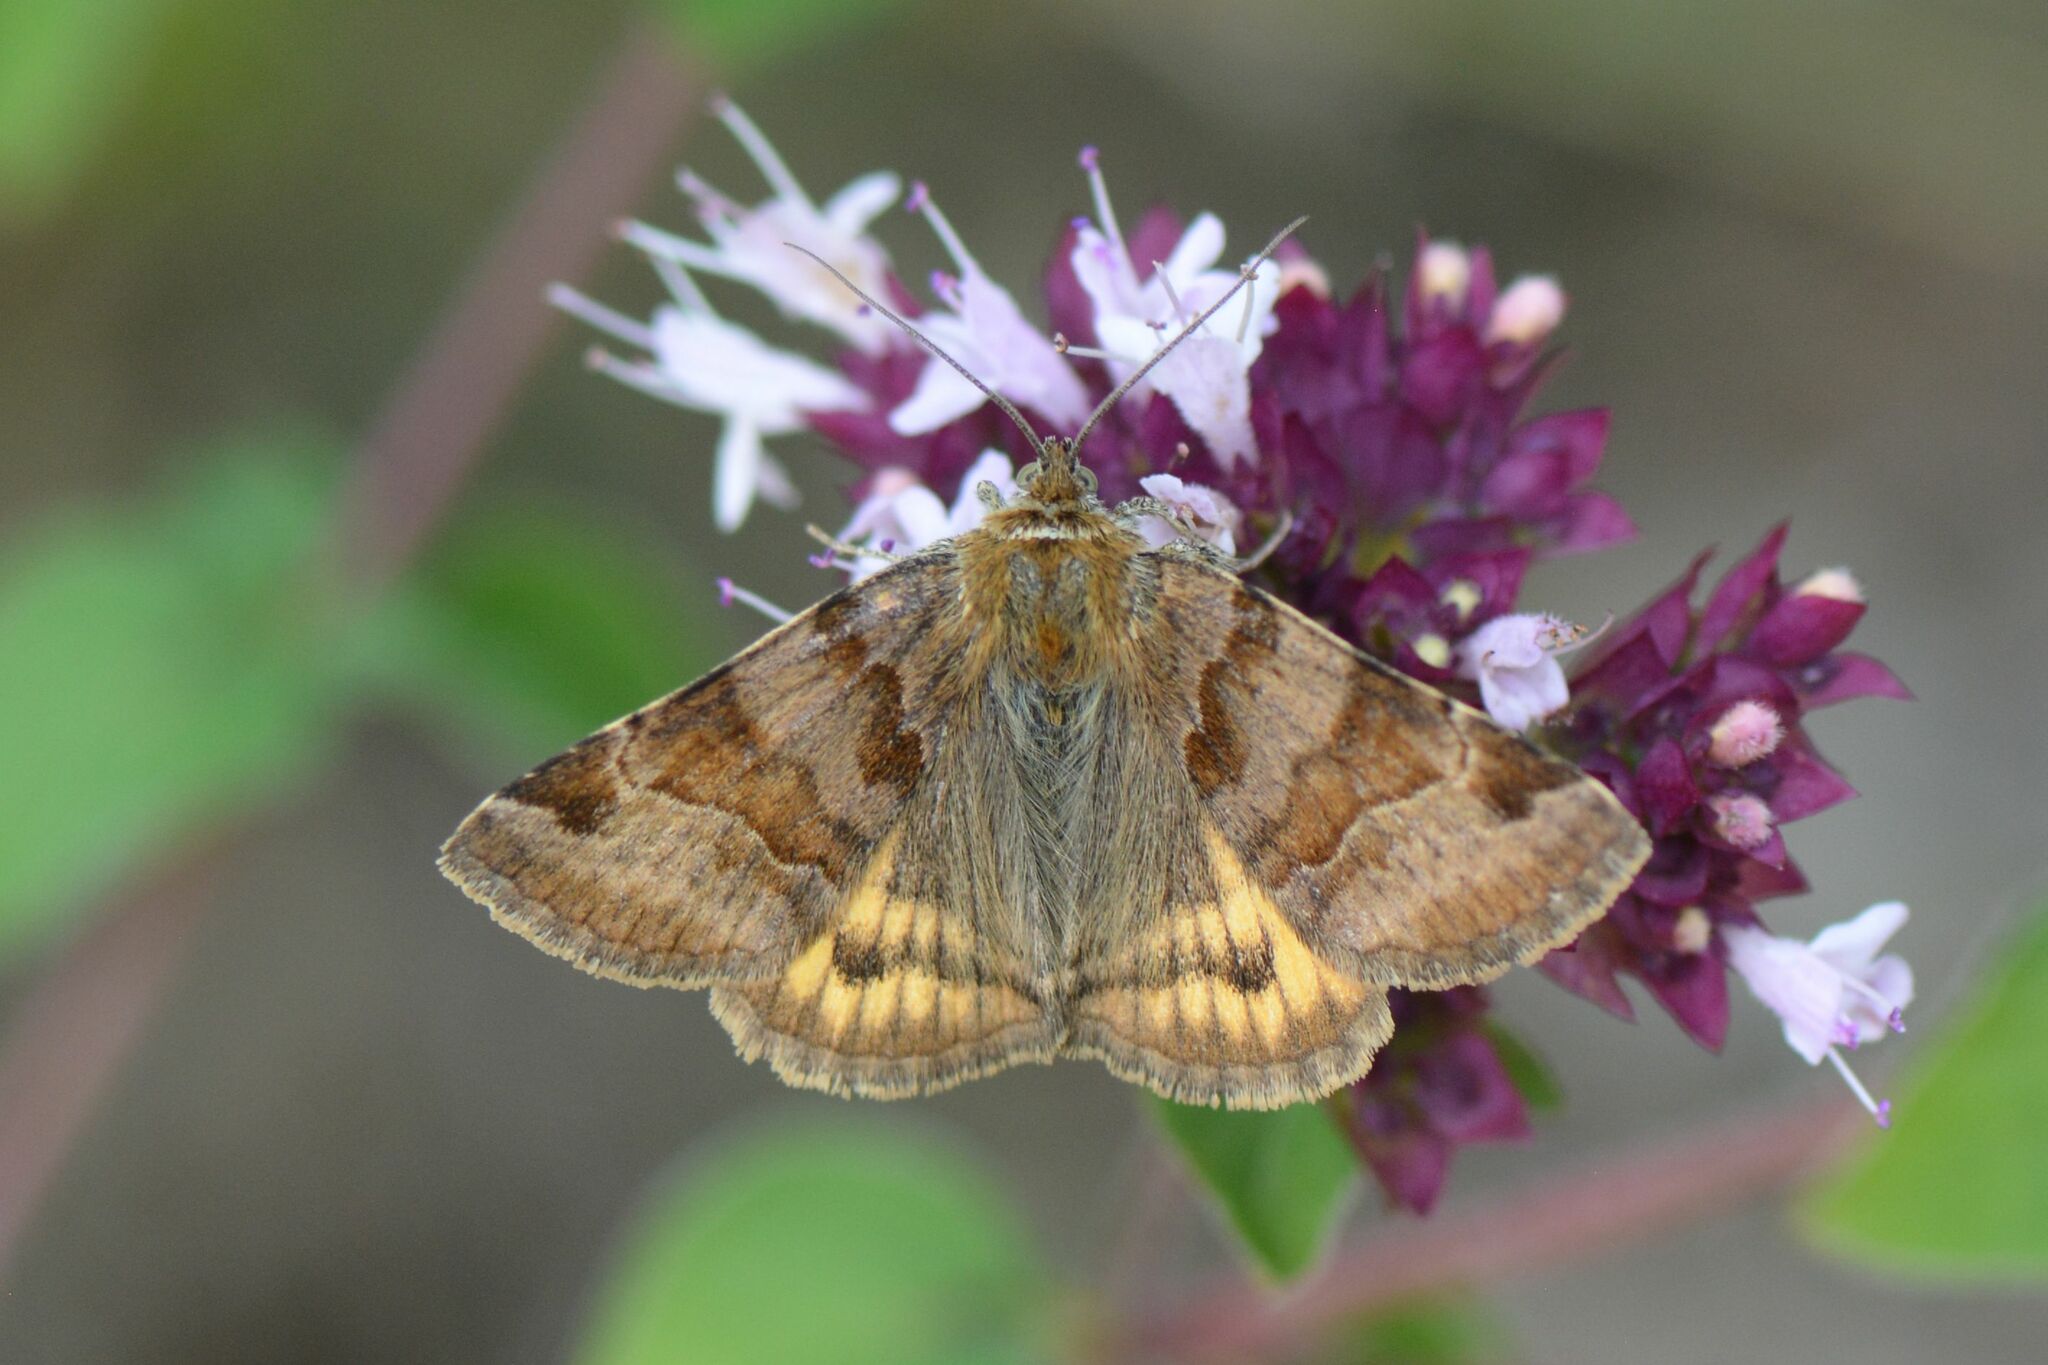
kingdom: Animalia
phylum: Arthropoda
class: Insecta
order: Lepidoptera
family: Erebidae
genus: Euclidia
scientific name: Euclidia glyphica
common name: Burnet companion
